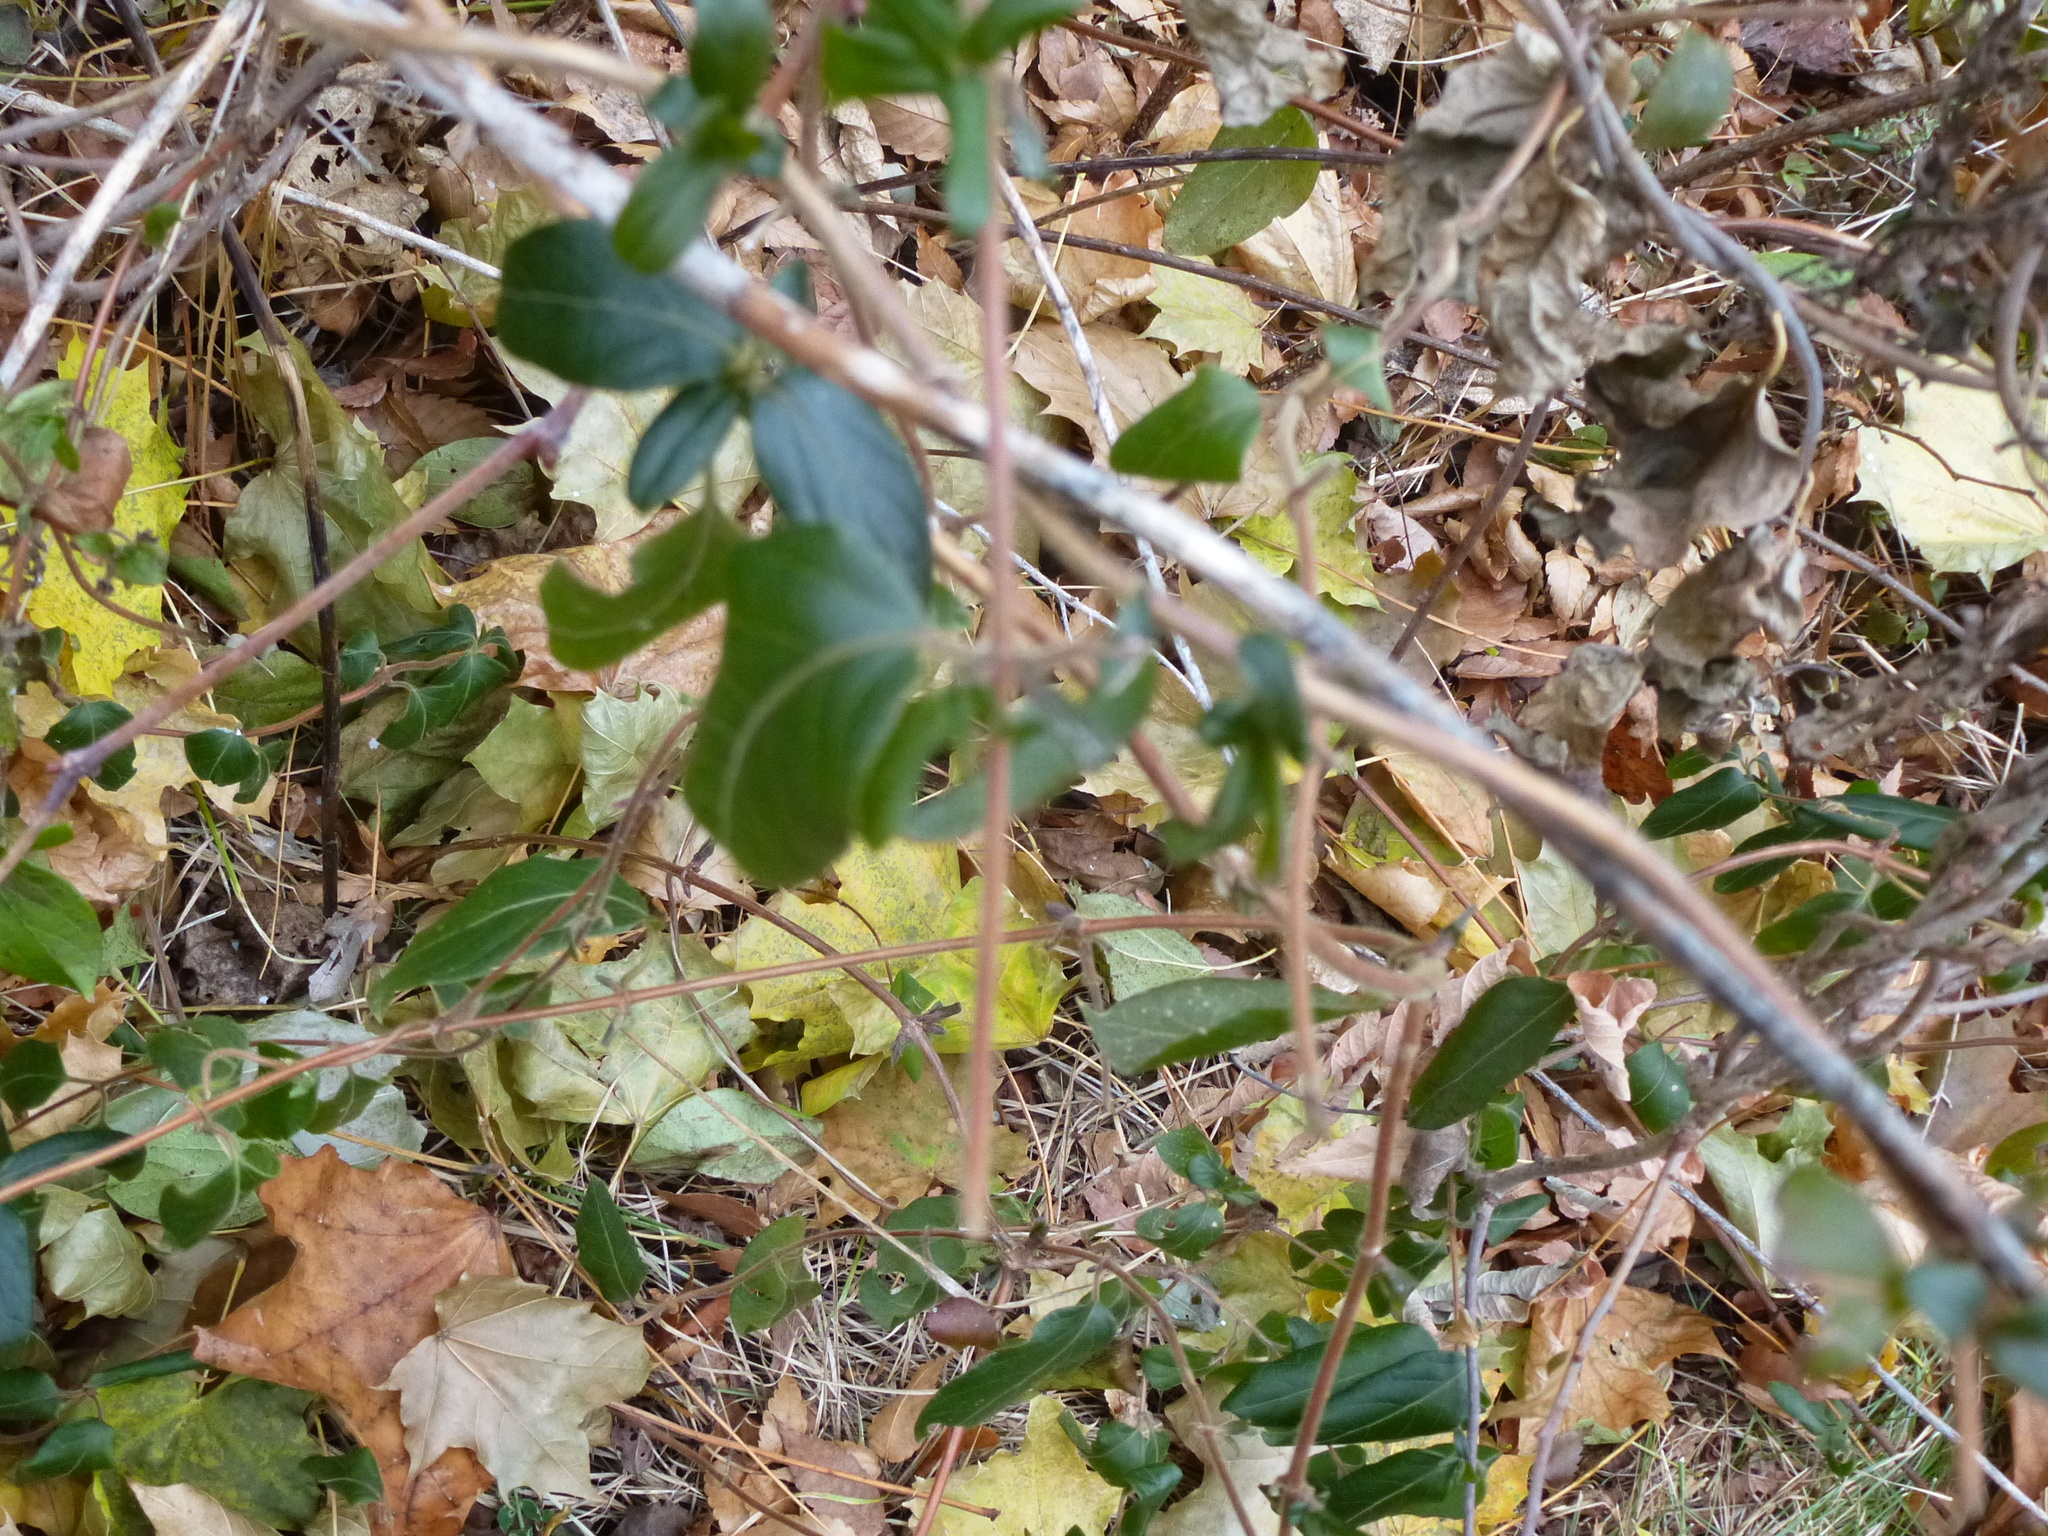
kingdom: Plantae
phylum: Tracheophyta
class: Magnoliopsida
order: Dipsacales
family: Caprifoliaceae
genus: Lonicera
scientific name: Lonicera japonica
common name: Japanese honeysuckle
